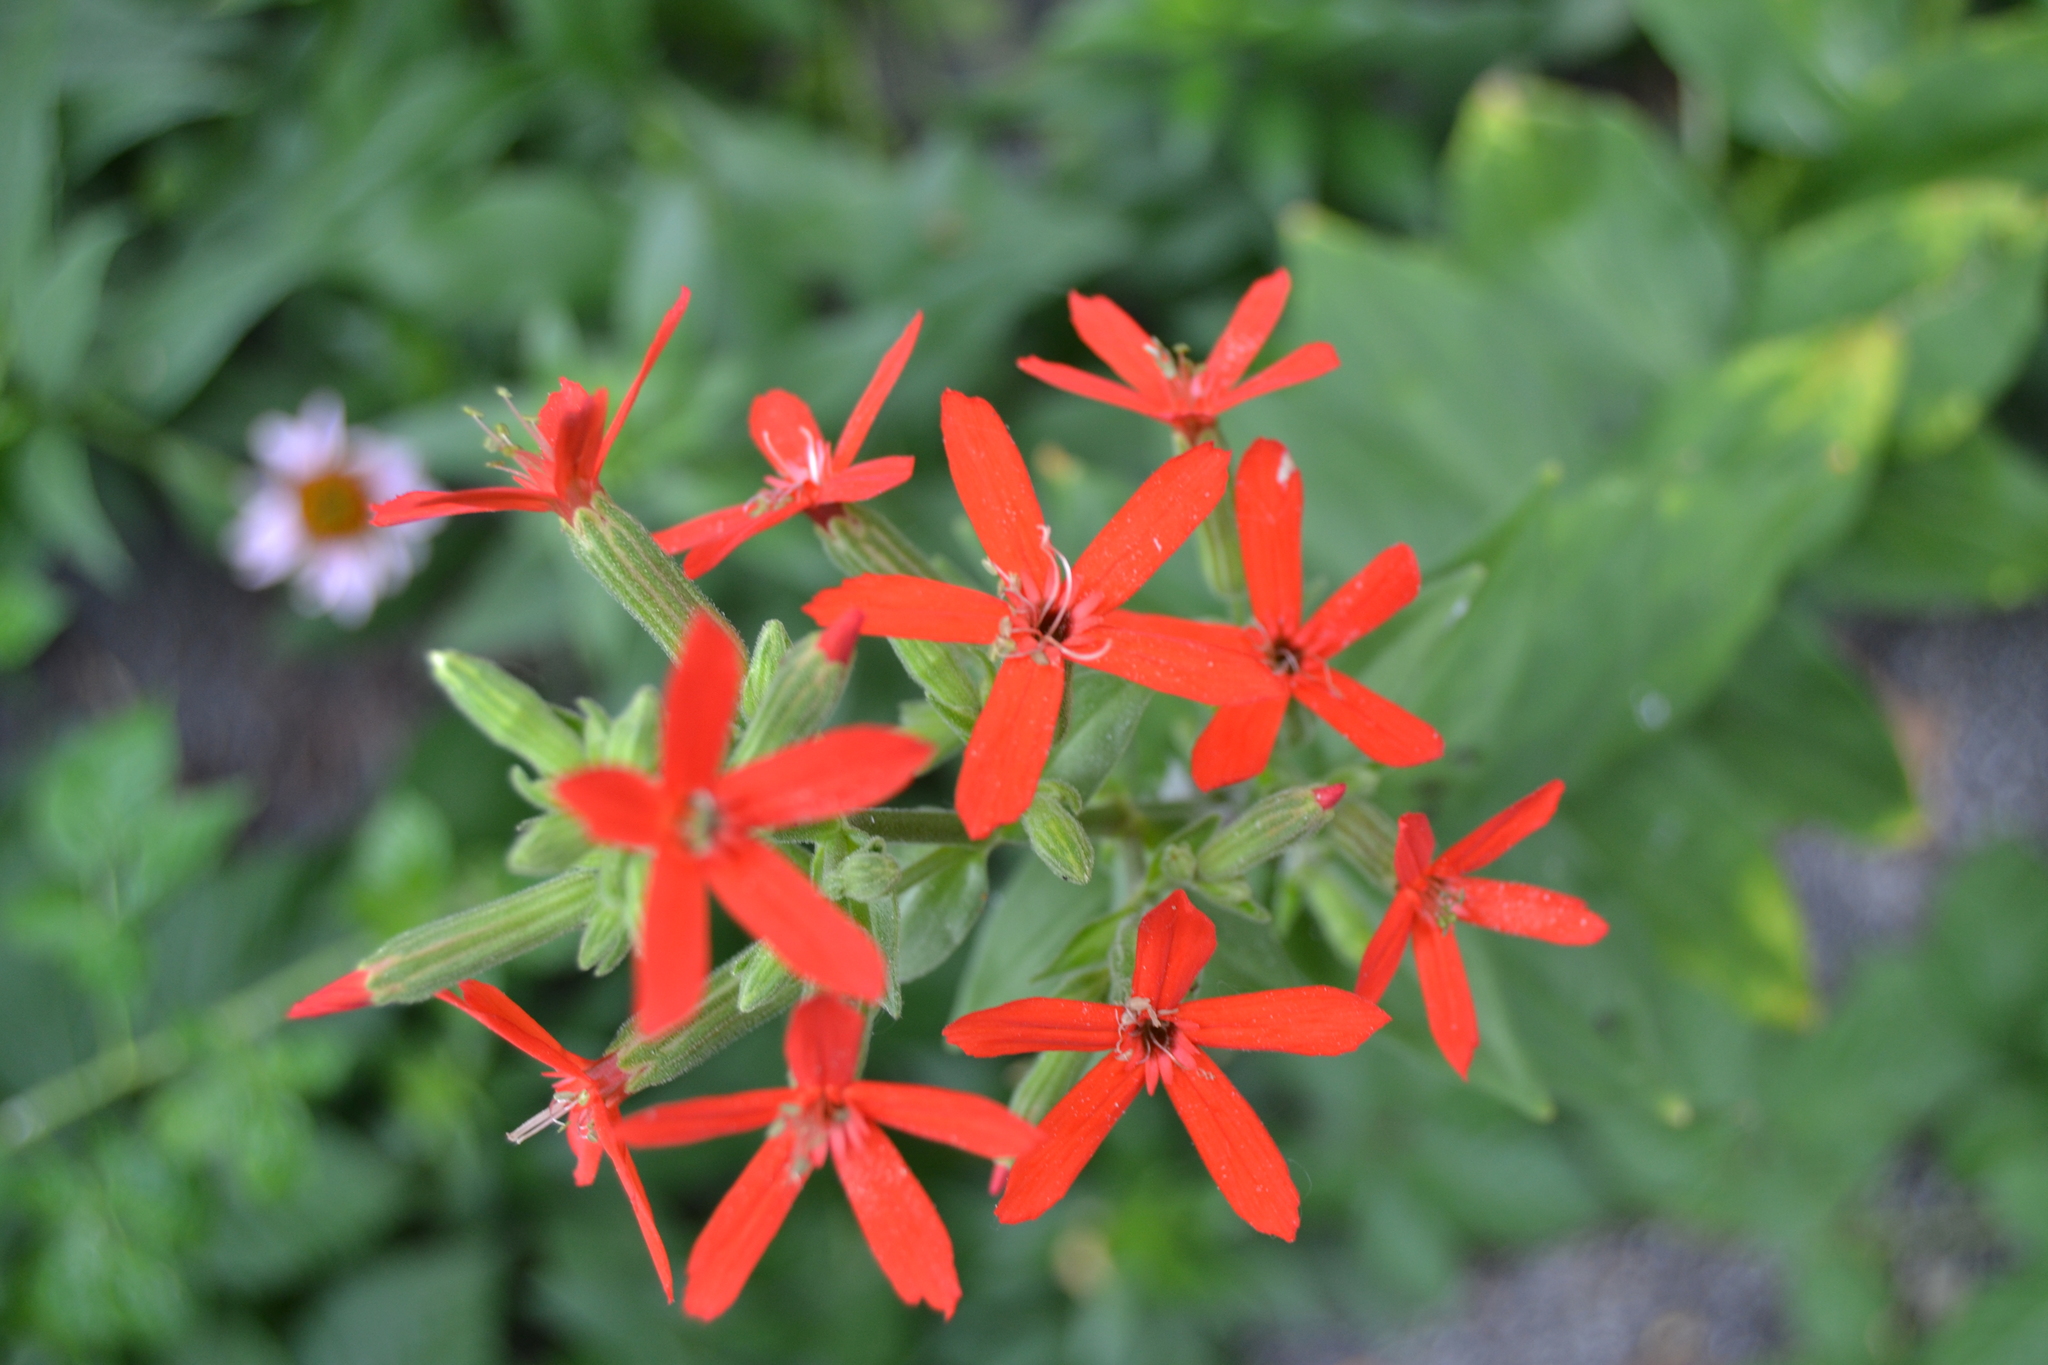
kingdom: Plantae
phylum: Tracheophyta
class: Magnoliopsida
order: Caryophyllales
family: Caryophyllaceae
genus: Silene
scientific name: Silene regia
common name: Royal catchfly
